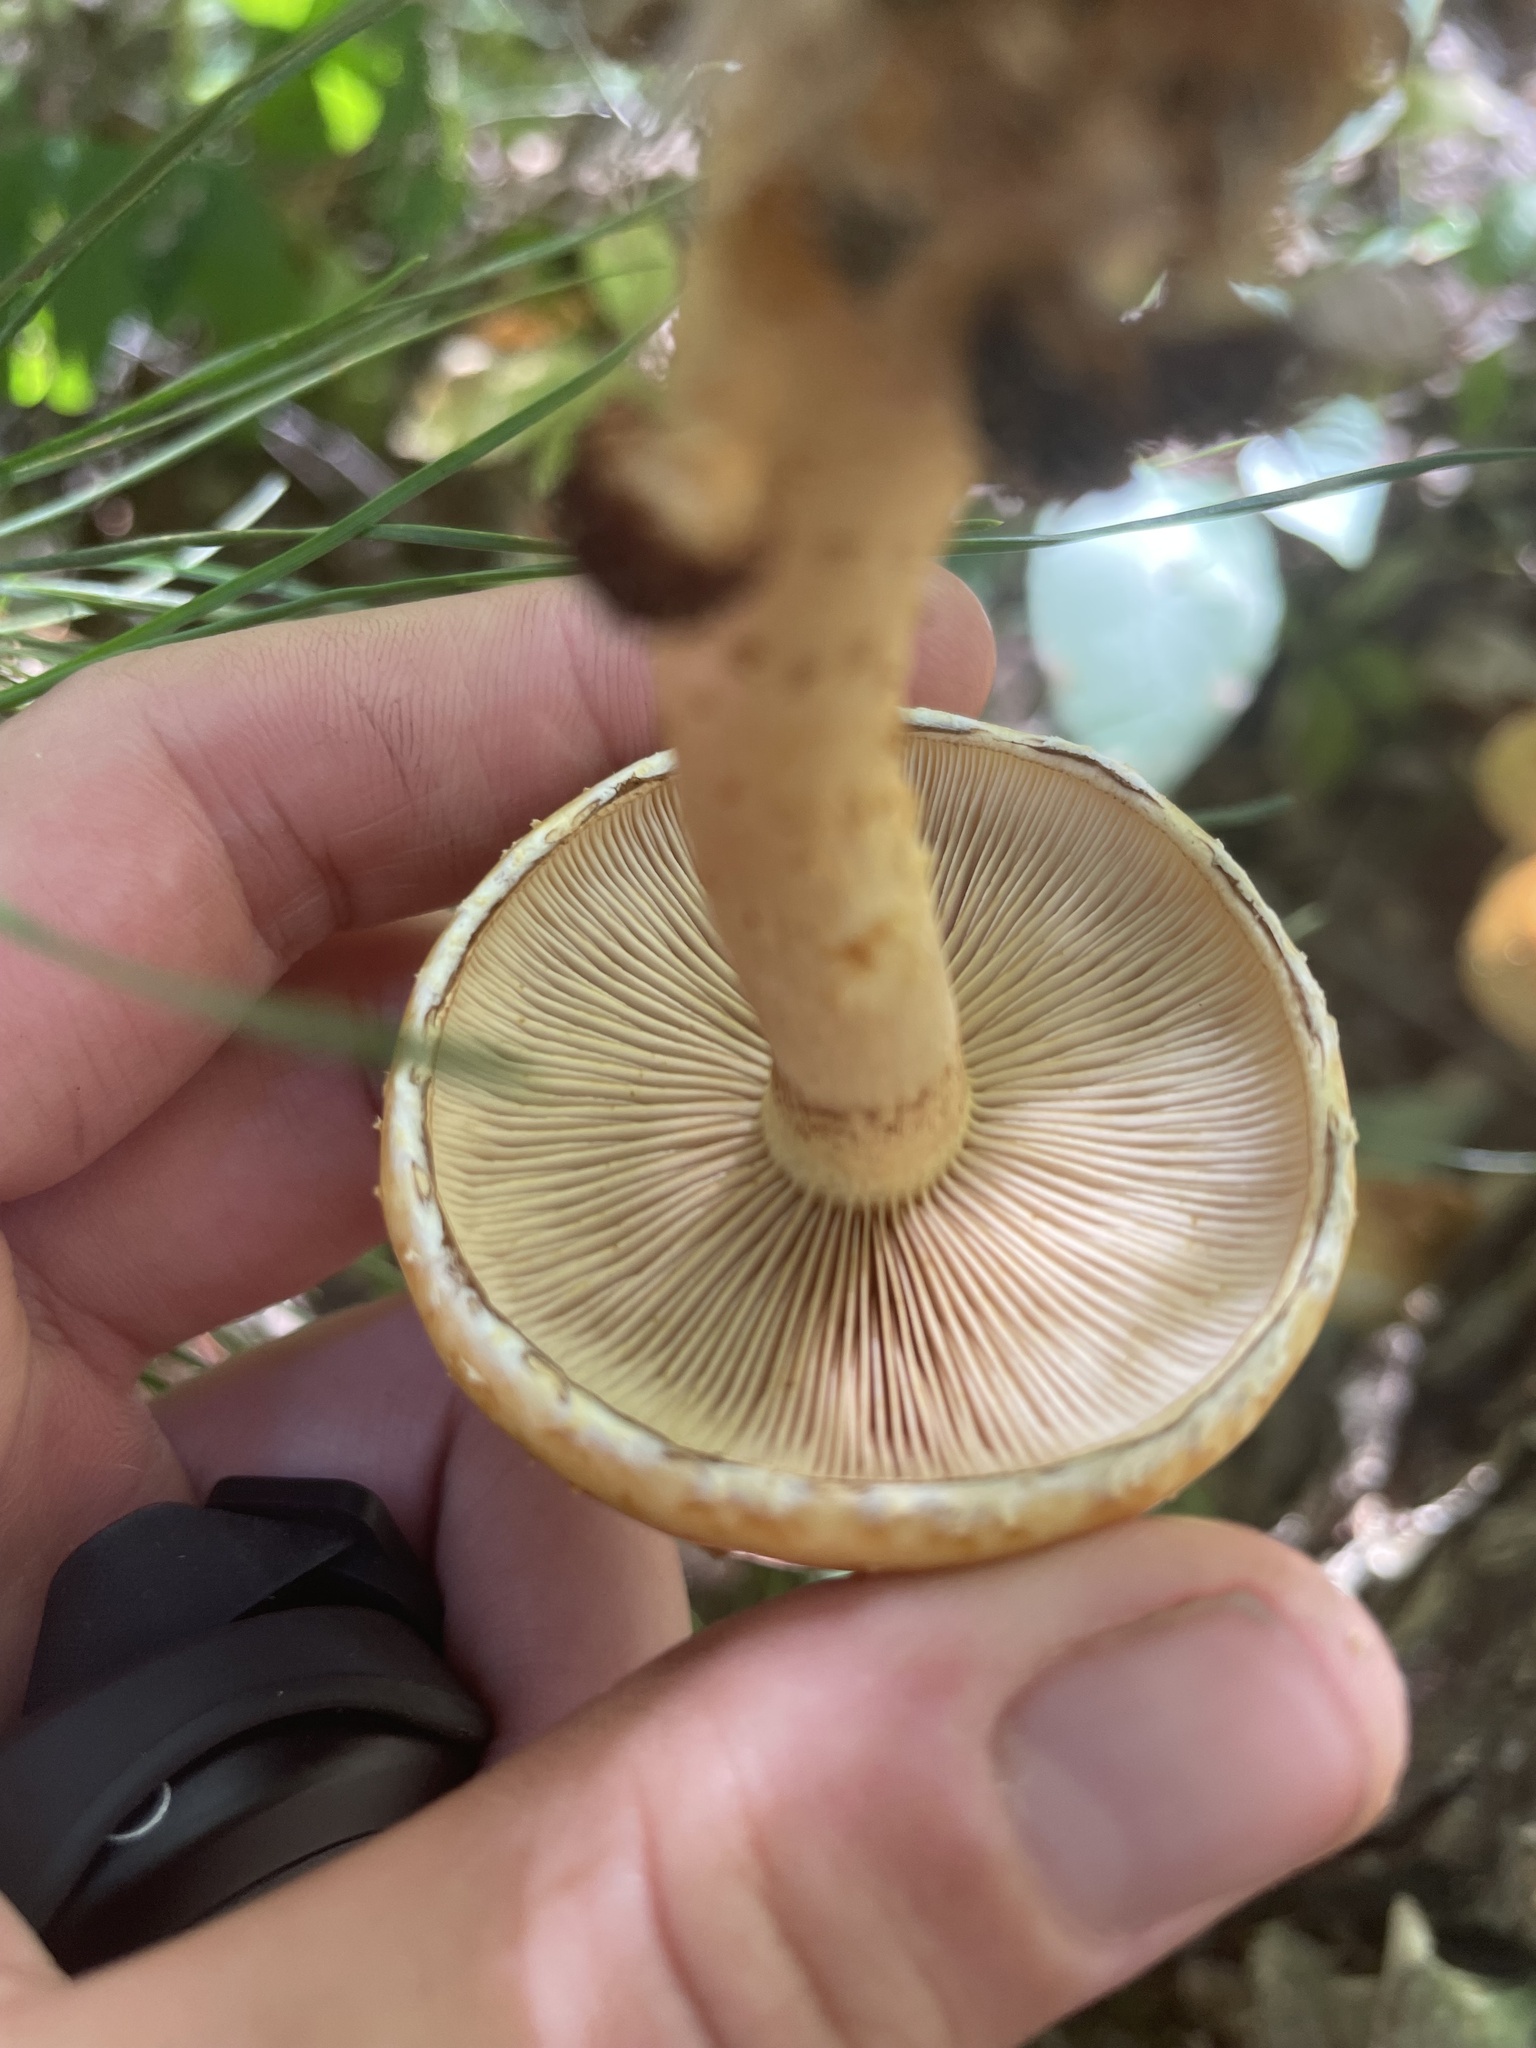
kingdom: Fungi
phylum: Basidiomycota
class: Agaricomycetes
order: Agaricales
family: Strophariaceae
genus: Pholiota
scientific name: Pholiota aurivella
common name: Golden scalycap
